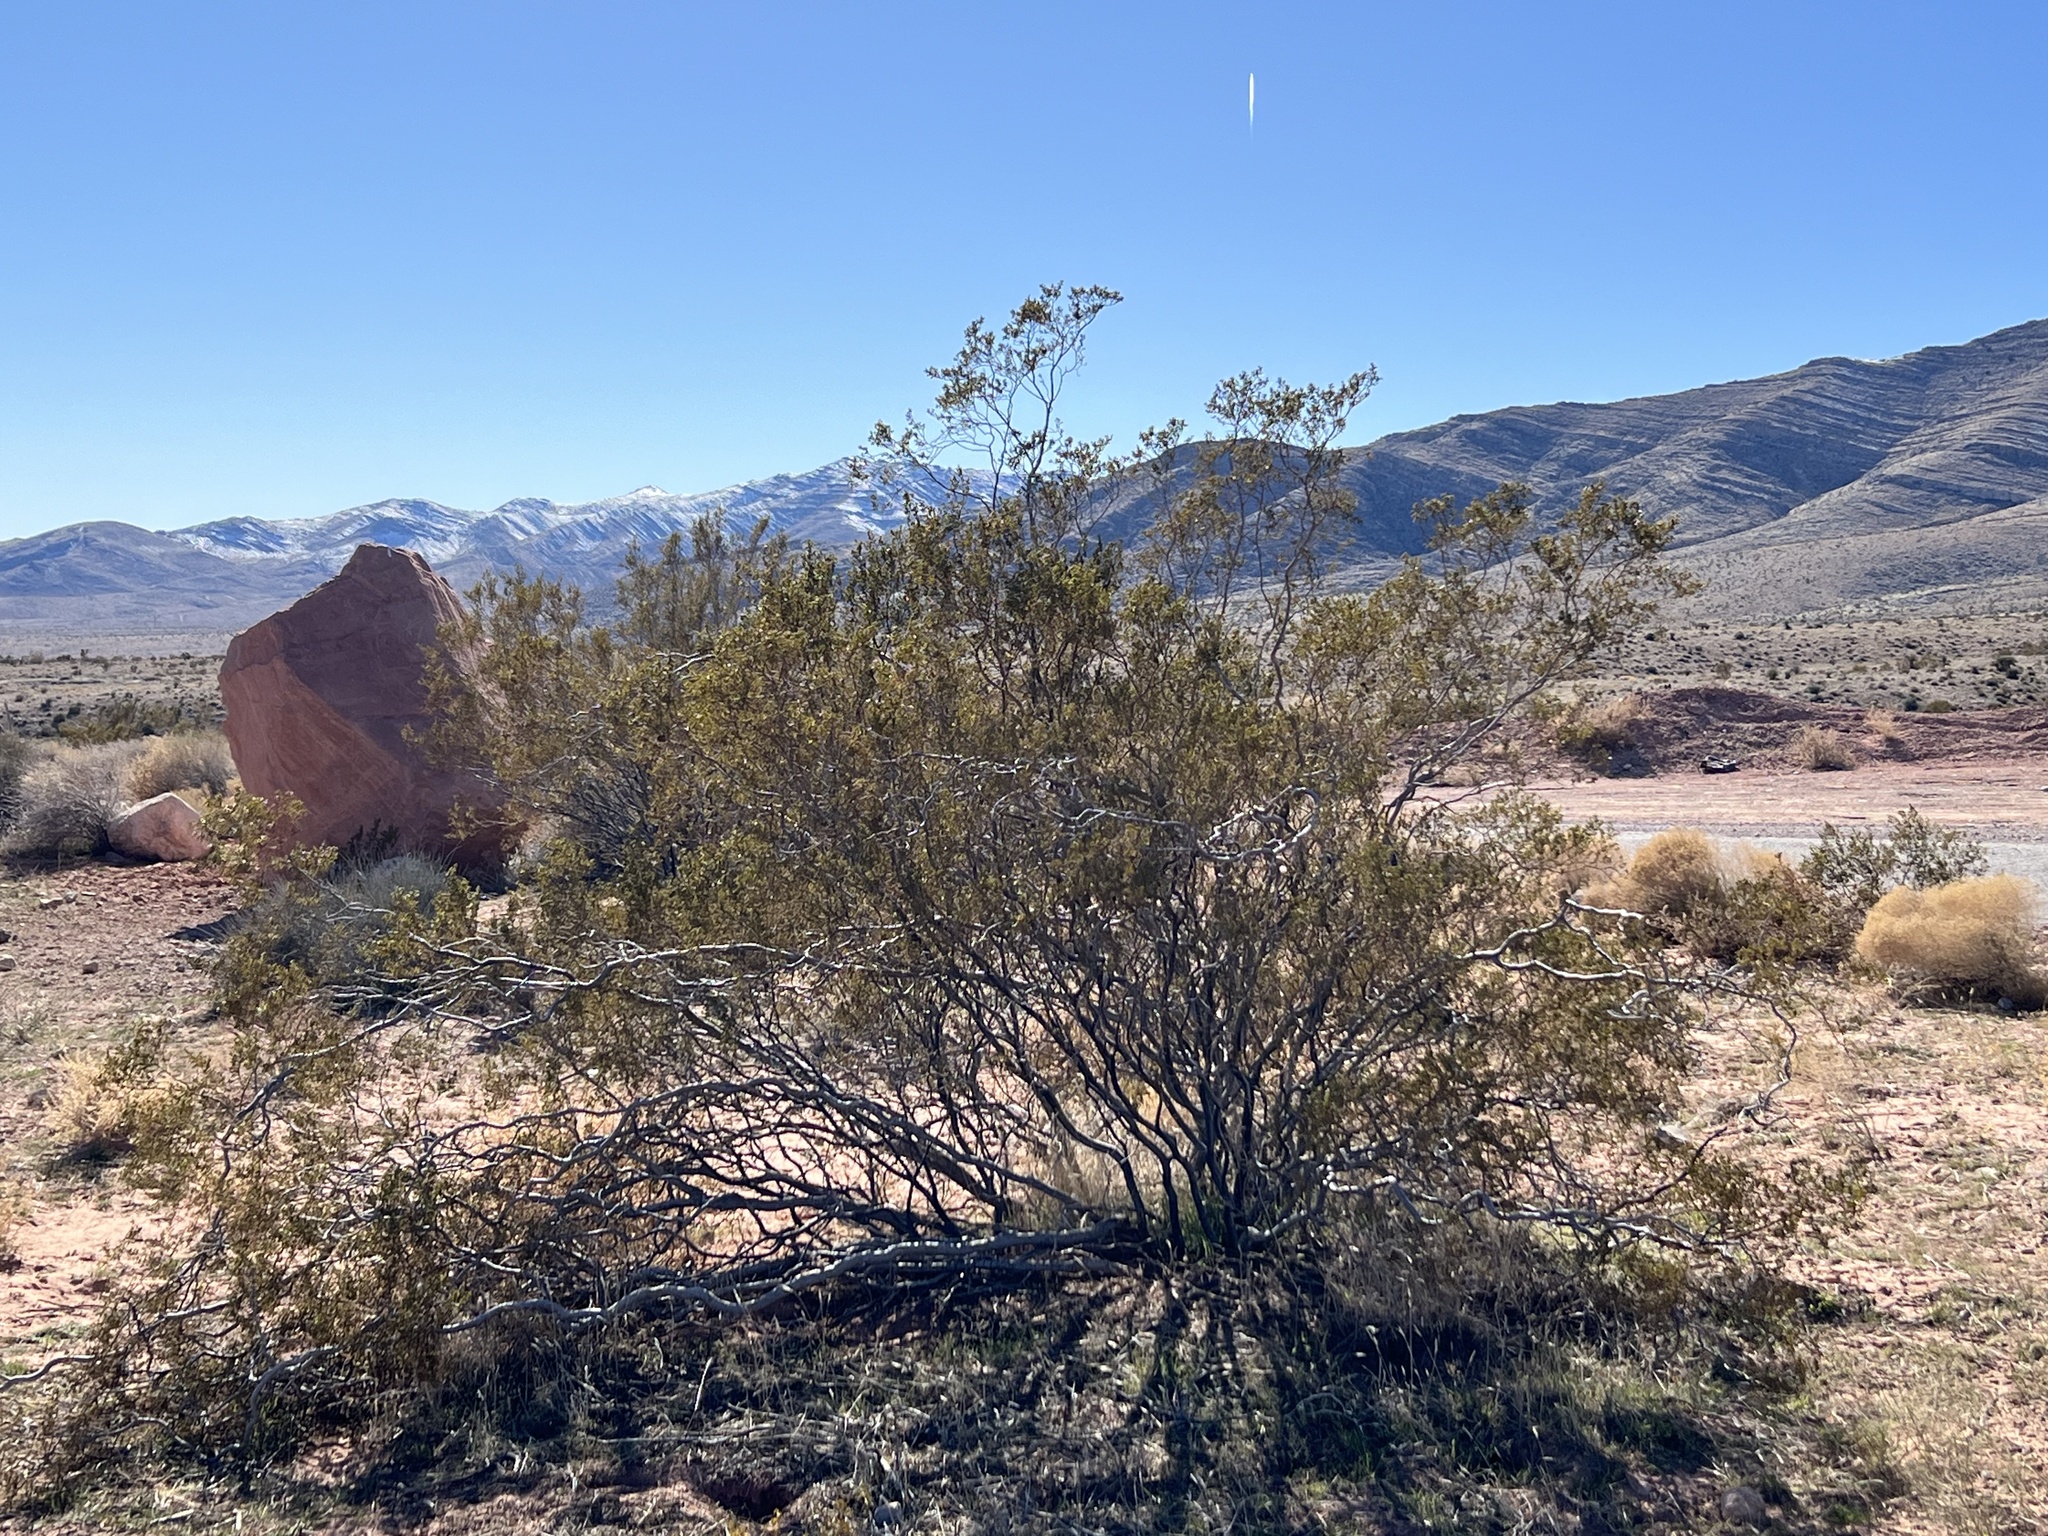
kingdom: Plantae
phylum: Tracheophyta
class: Magnoliopsida
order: Zygophyllales
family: Zygophyllaceae
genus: Larrea
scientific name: Larrea tridentata
